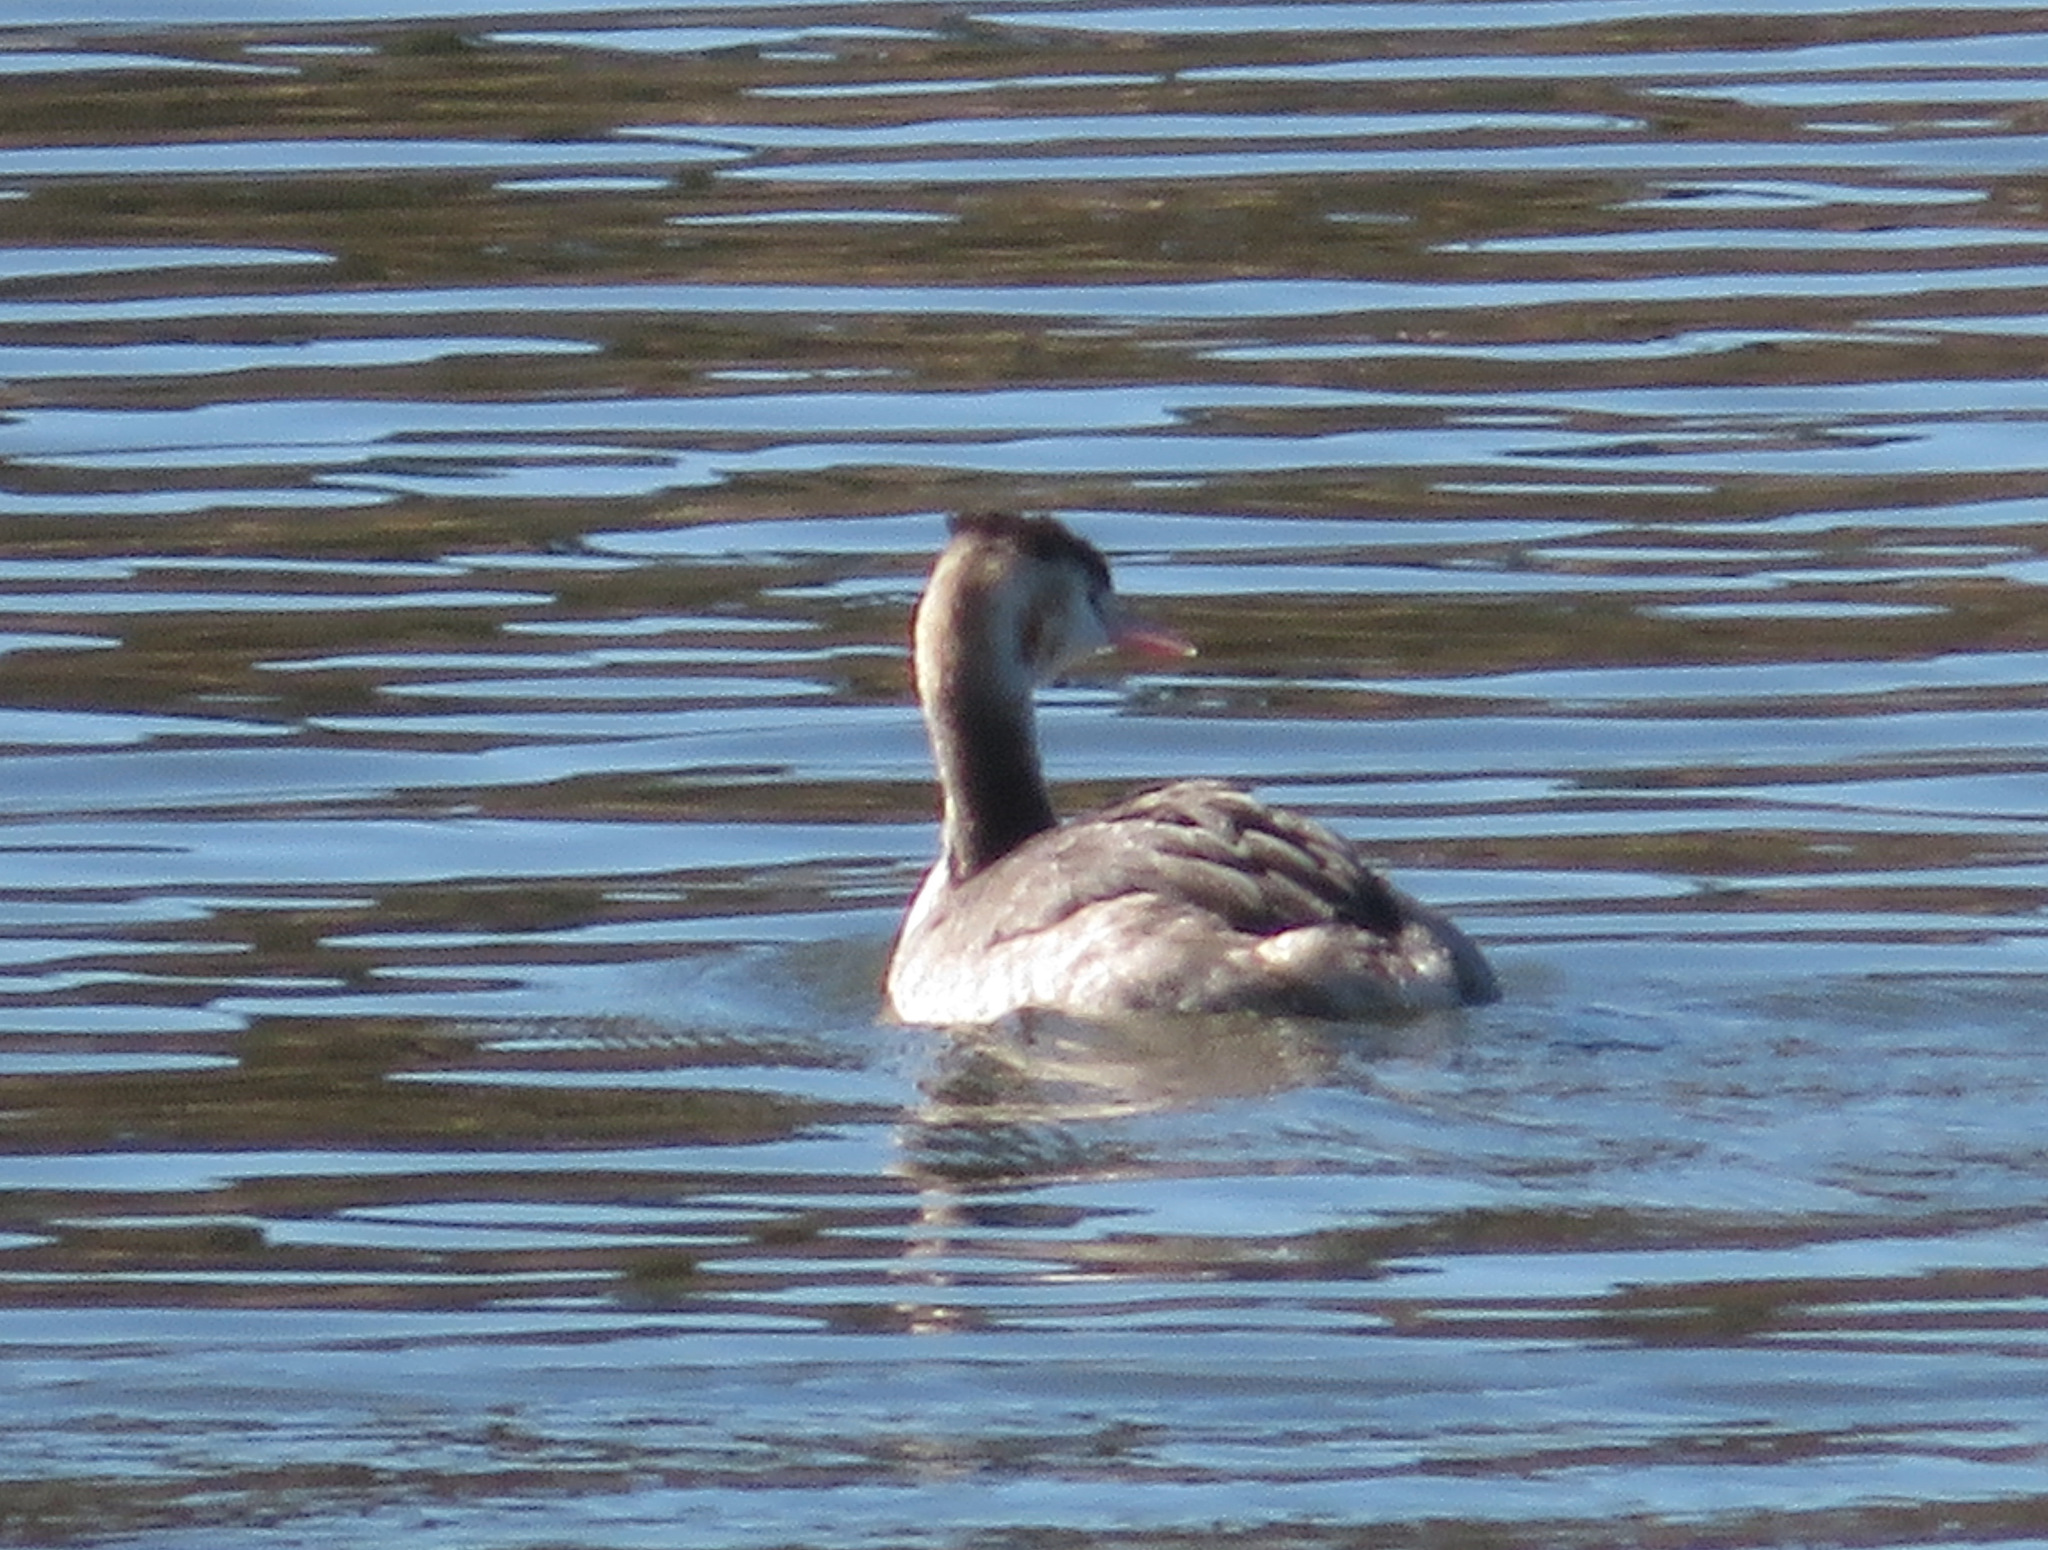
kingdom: Animalia
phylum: Chordata
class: Aves
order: Podicipediformes
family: Podicipedidae
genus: Podiceps
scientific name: Podiceps cristatus
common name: Great crested grebe
